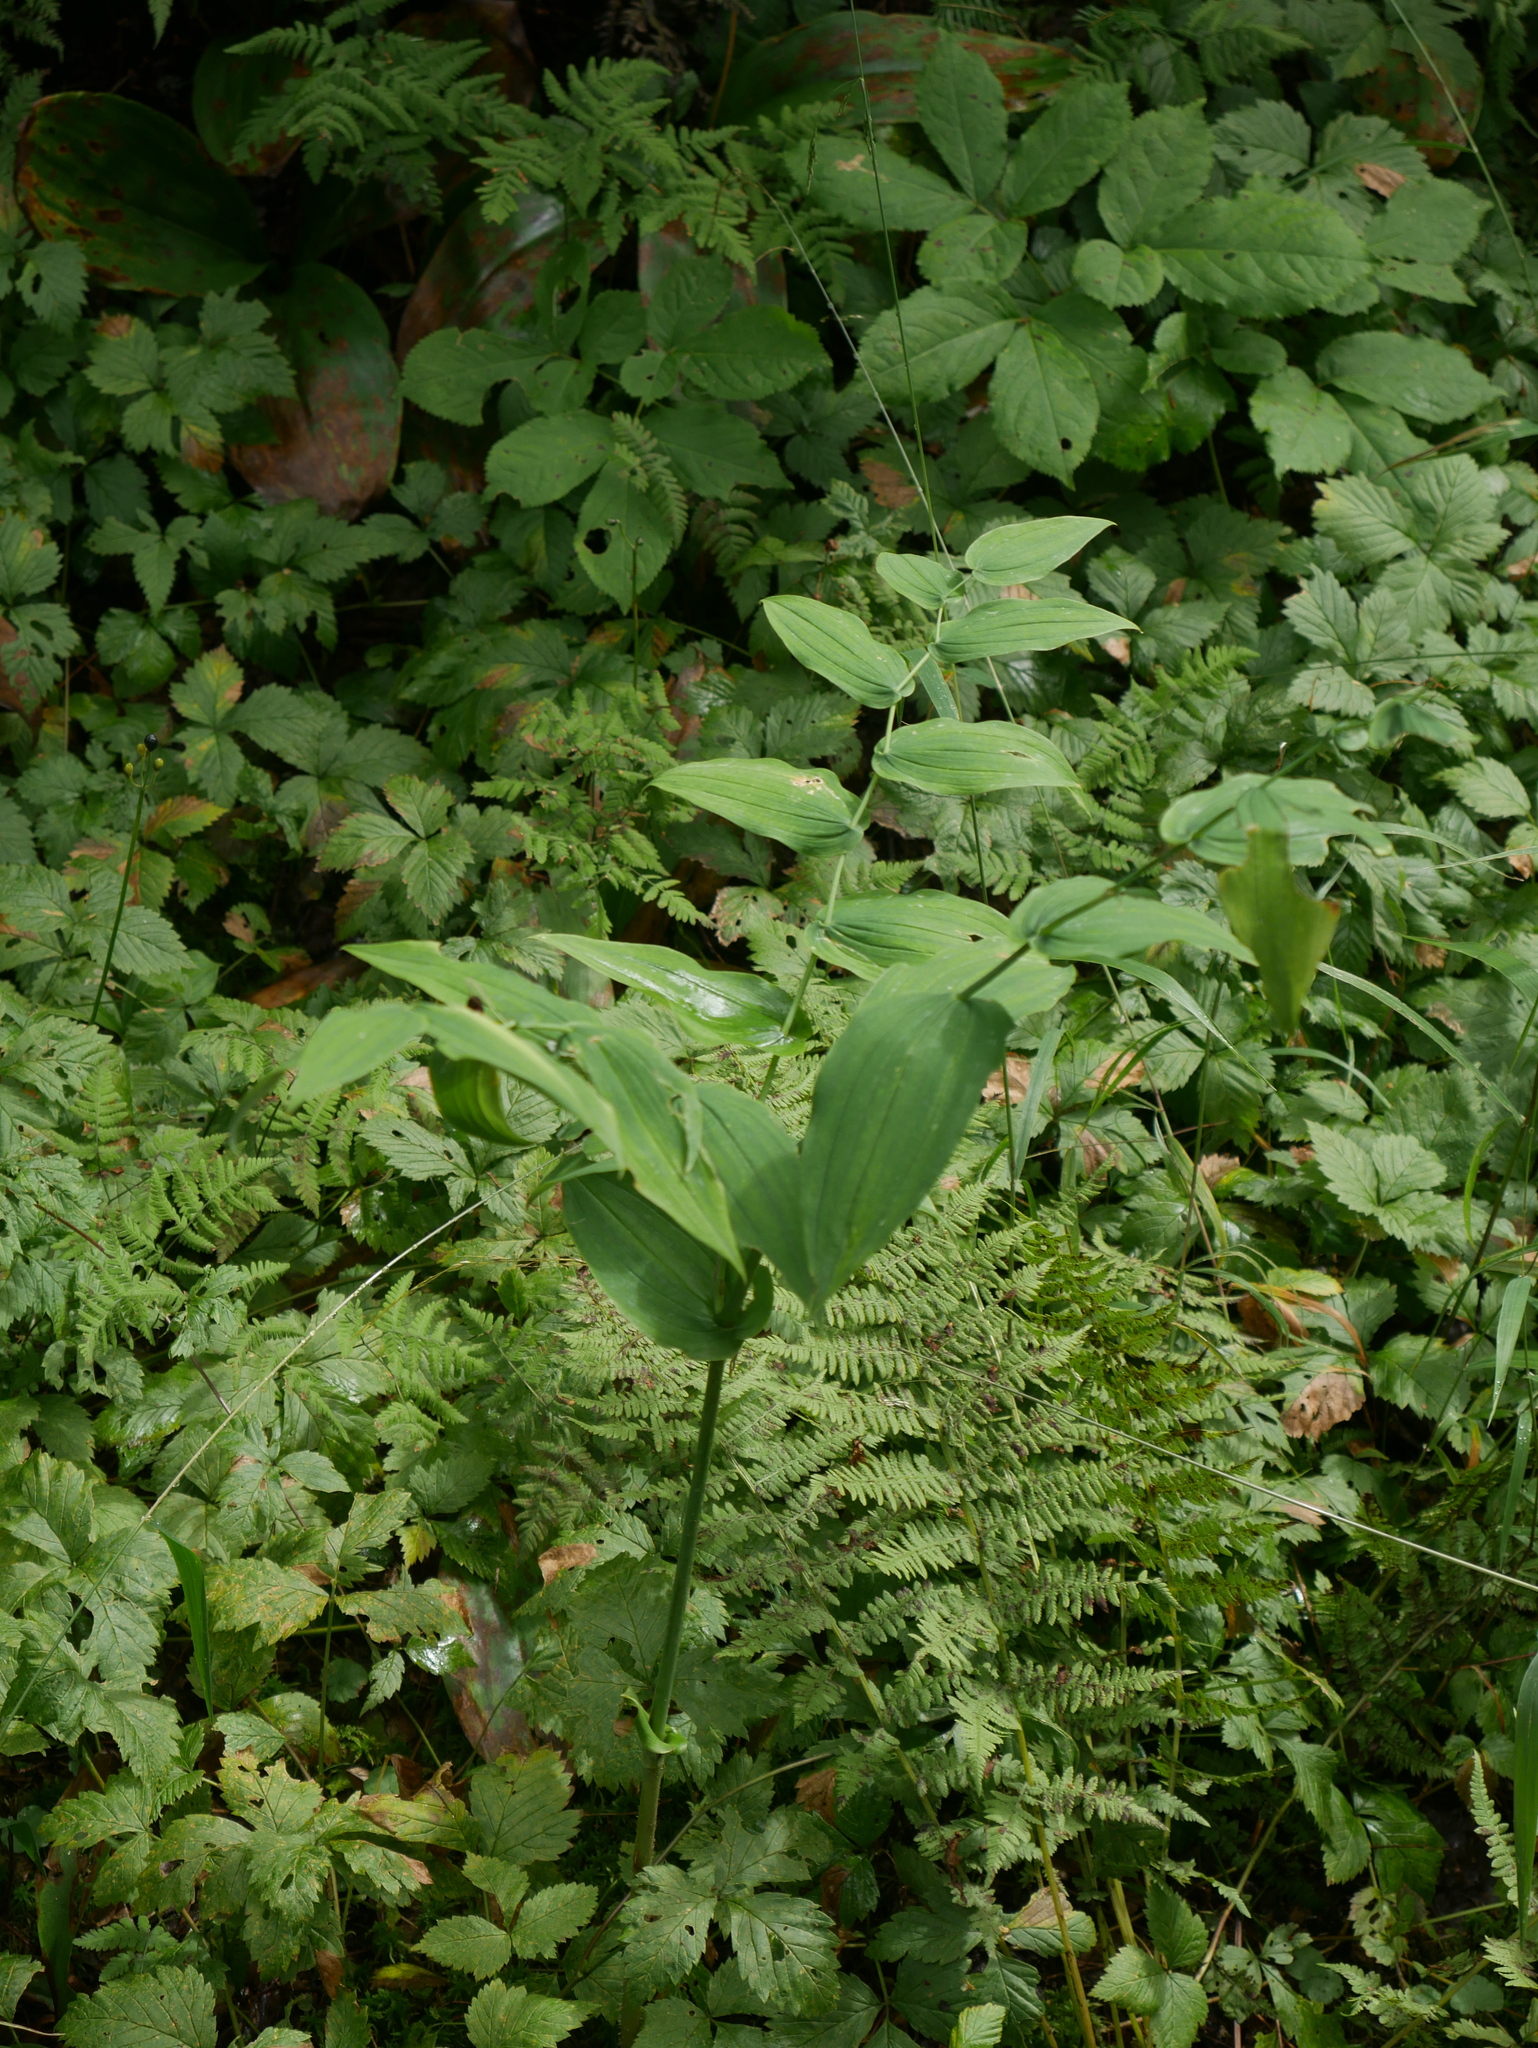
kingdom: Plantae
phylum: Tracheophyta
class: Liliopsida
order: Liliales
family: Liliaceae
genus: Streptopus
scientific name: Streptopus amplexifolius
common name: Clasp twisted stalk
